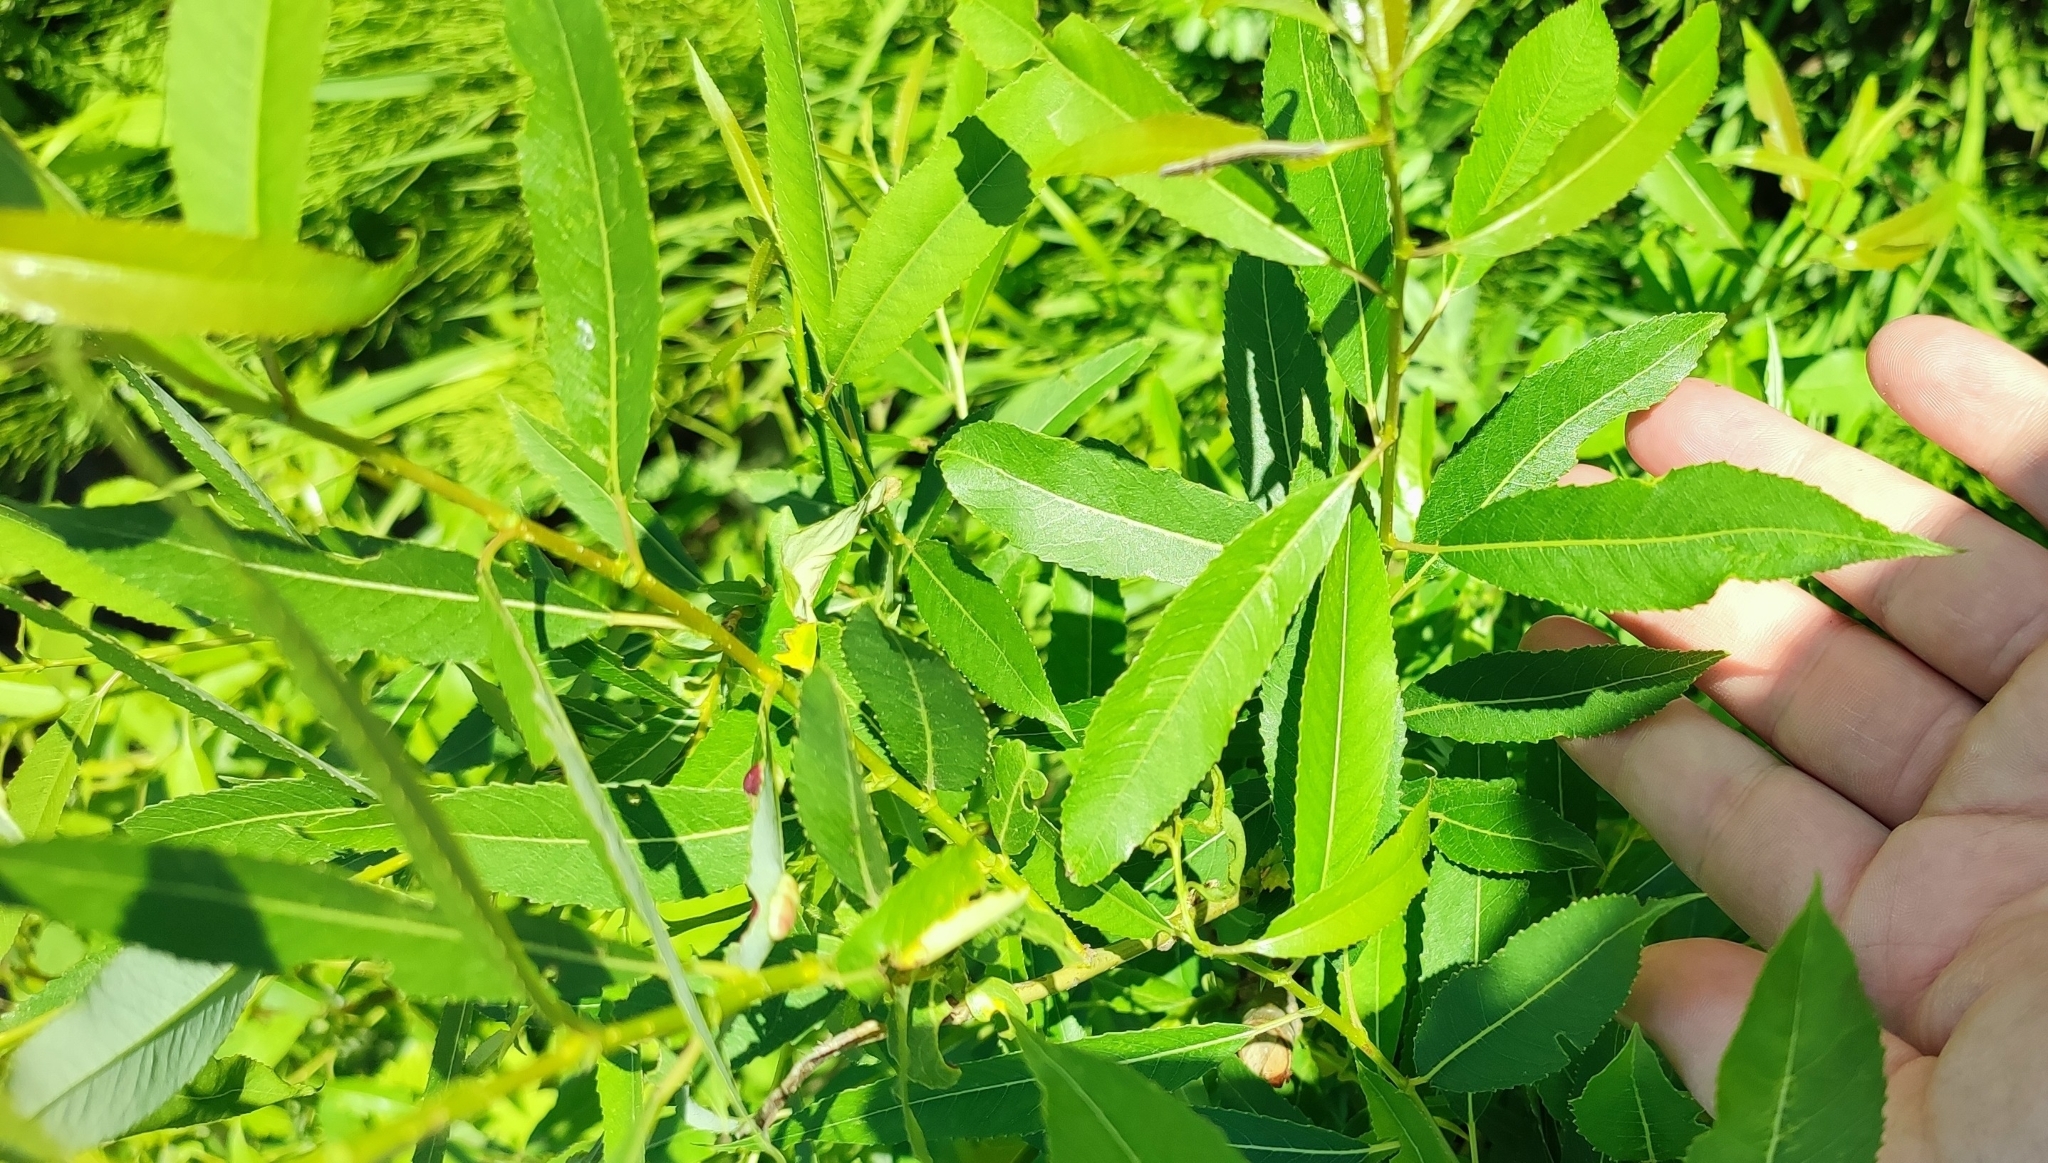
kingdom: Plantae
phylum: Tracheophyta
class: Magnoliopsida
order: Malpighiales
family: Salicaceae
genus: Salix
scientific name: Salix triandra
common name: Almond willow
